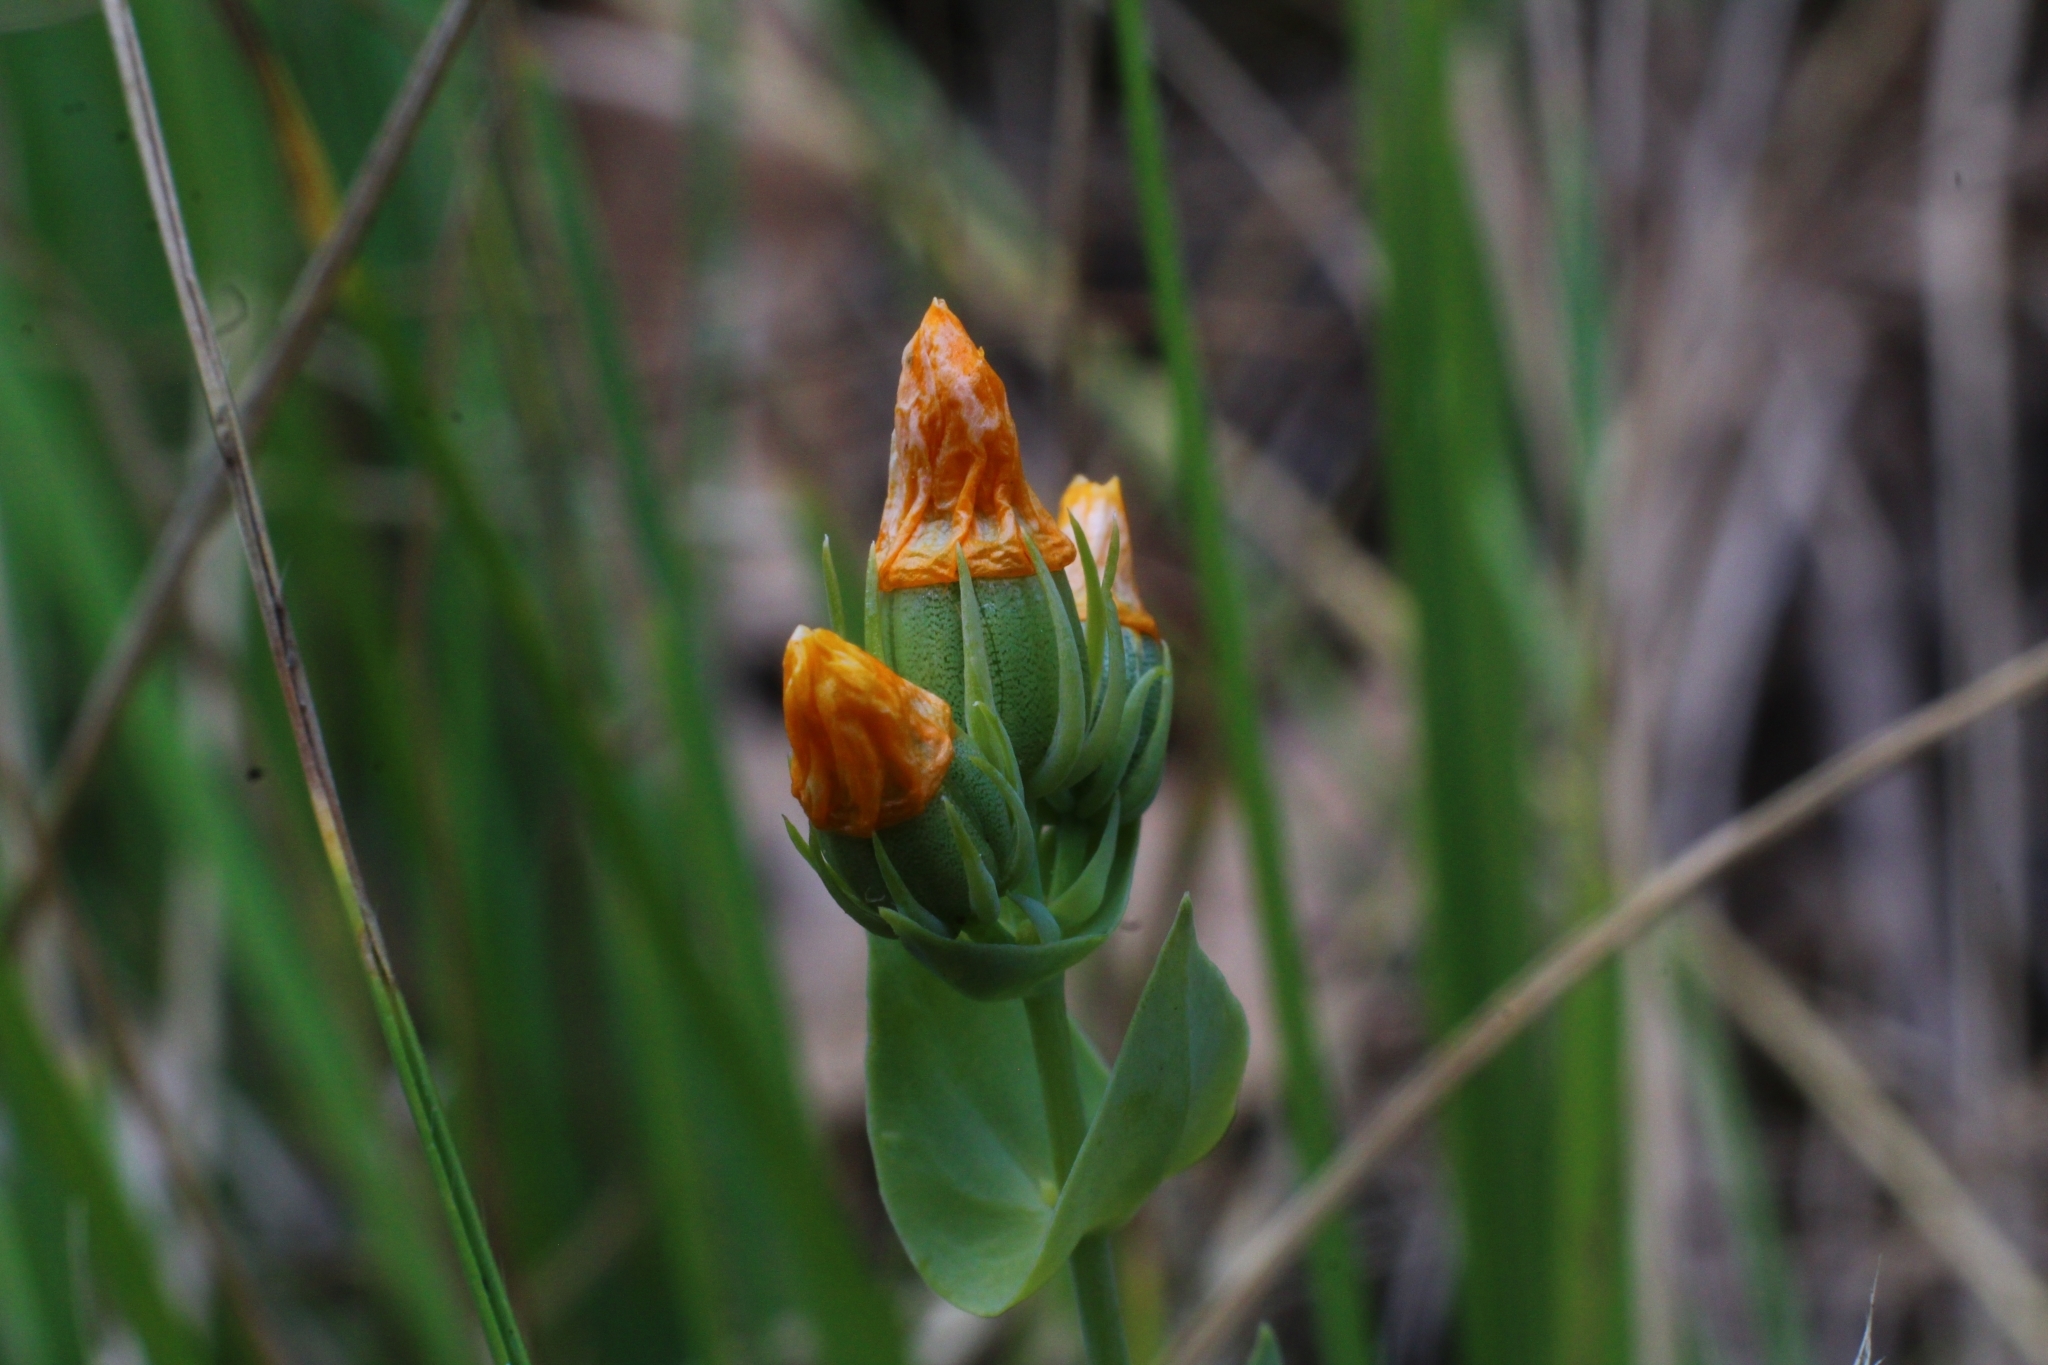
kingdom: Plantae
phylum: Tracheophyta
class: Magnoliopsida
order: Gentianales
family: Gentianaceae
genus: Blackstonia
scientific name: Blackstonia perfoliata
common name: Yellow-wort
